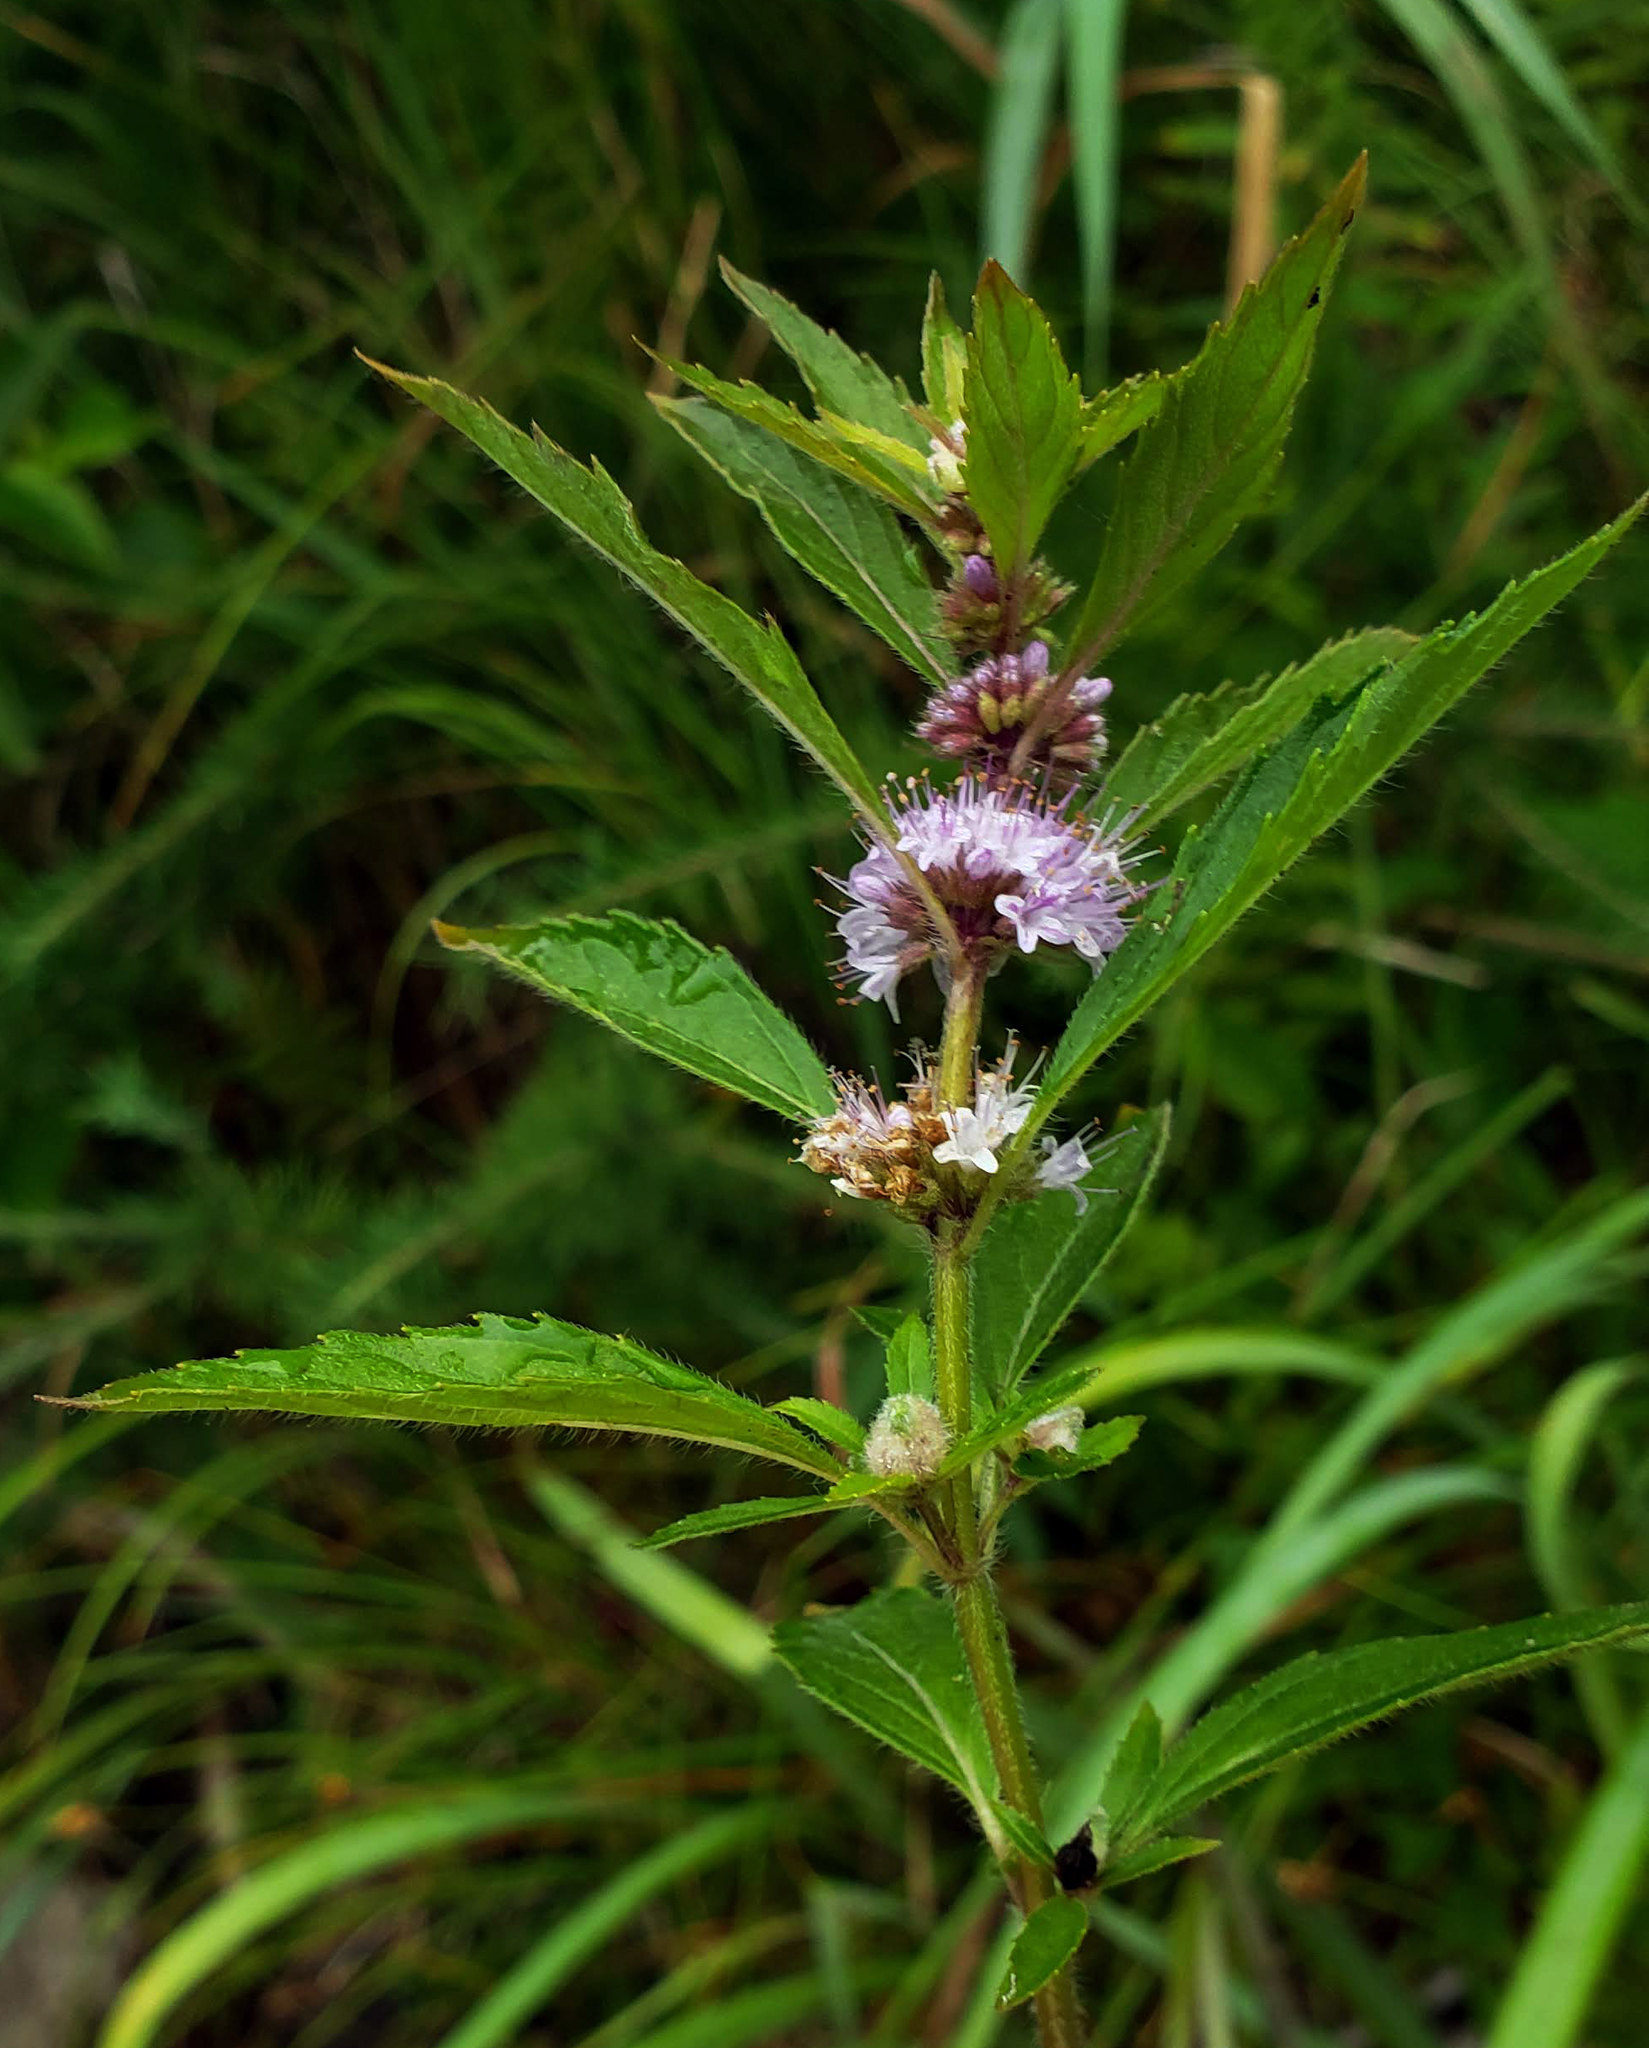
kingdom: Plantae
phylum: Tracheophyta
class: Magnoliopsida
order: Lamiales
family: Lamiaceae
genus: Mentha
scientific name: Mentha canadensis
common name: American corn mint
